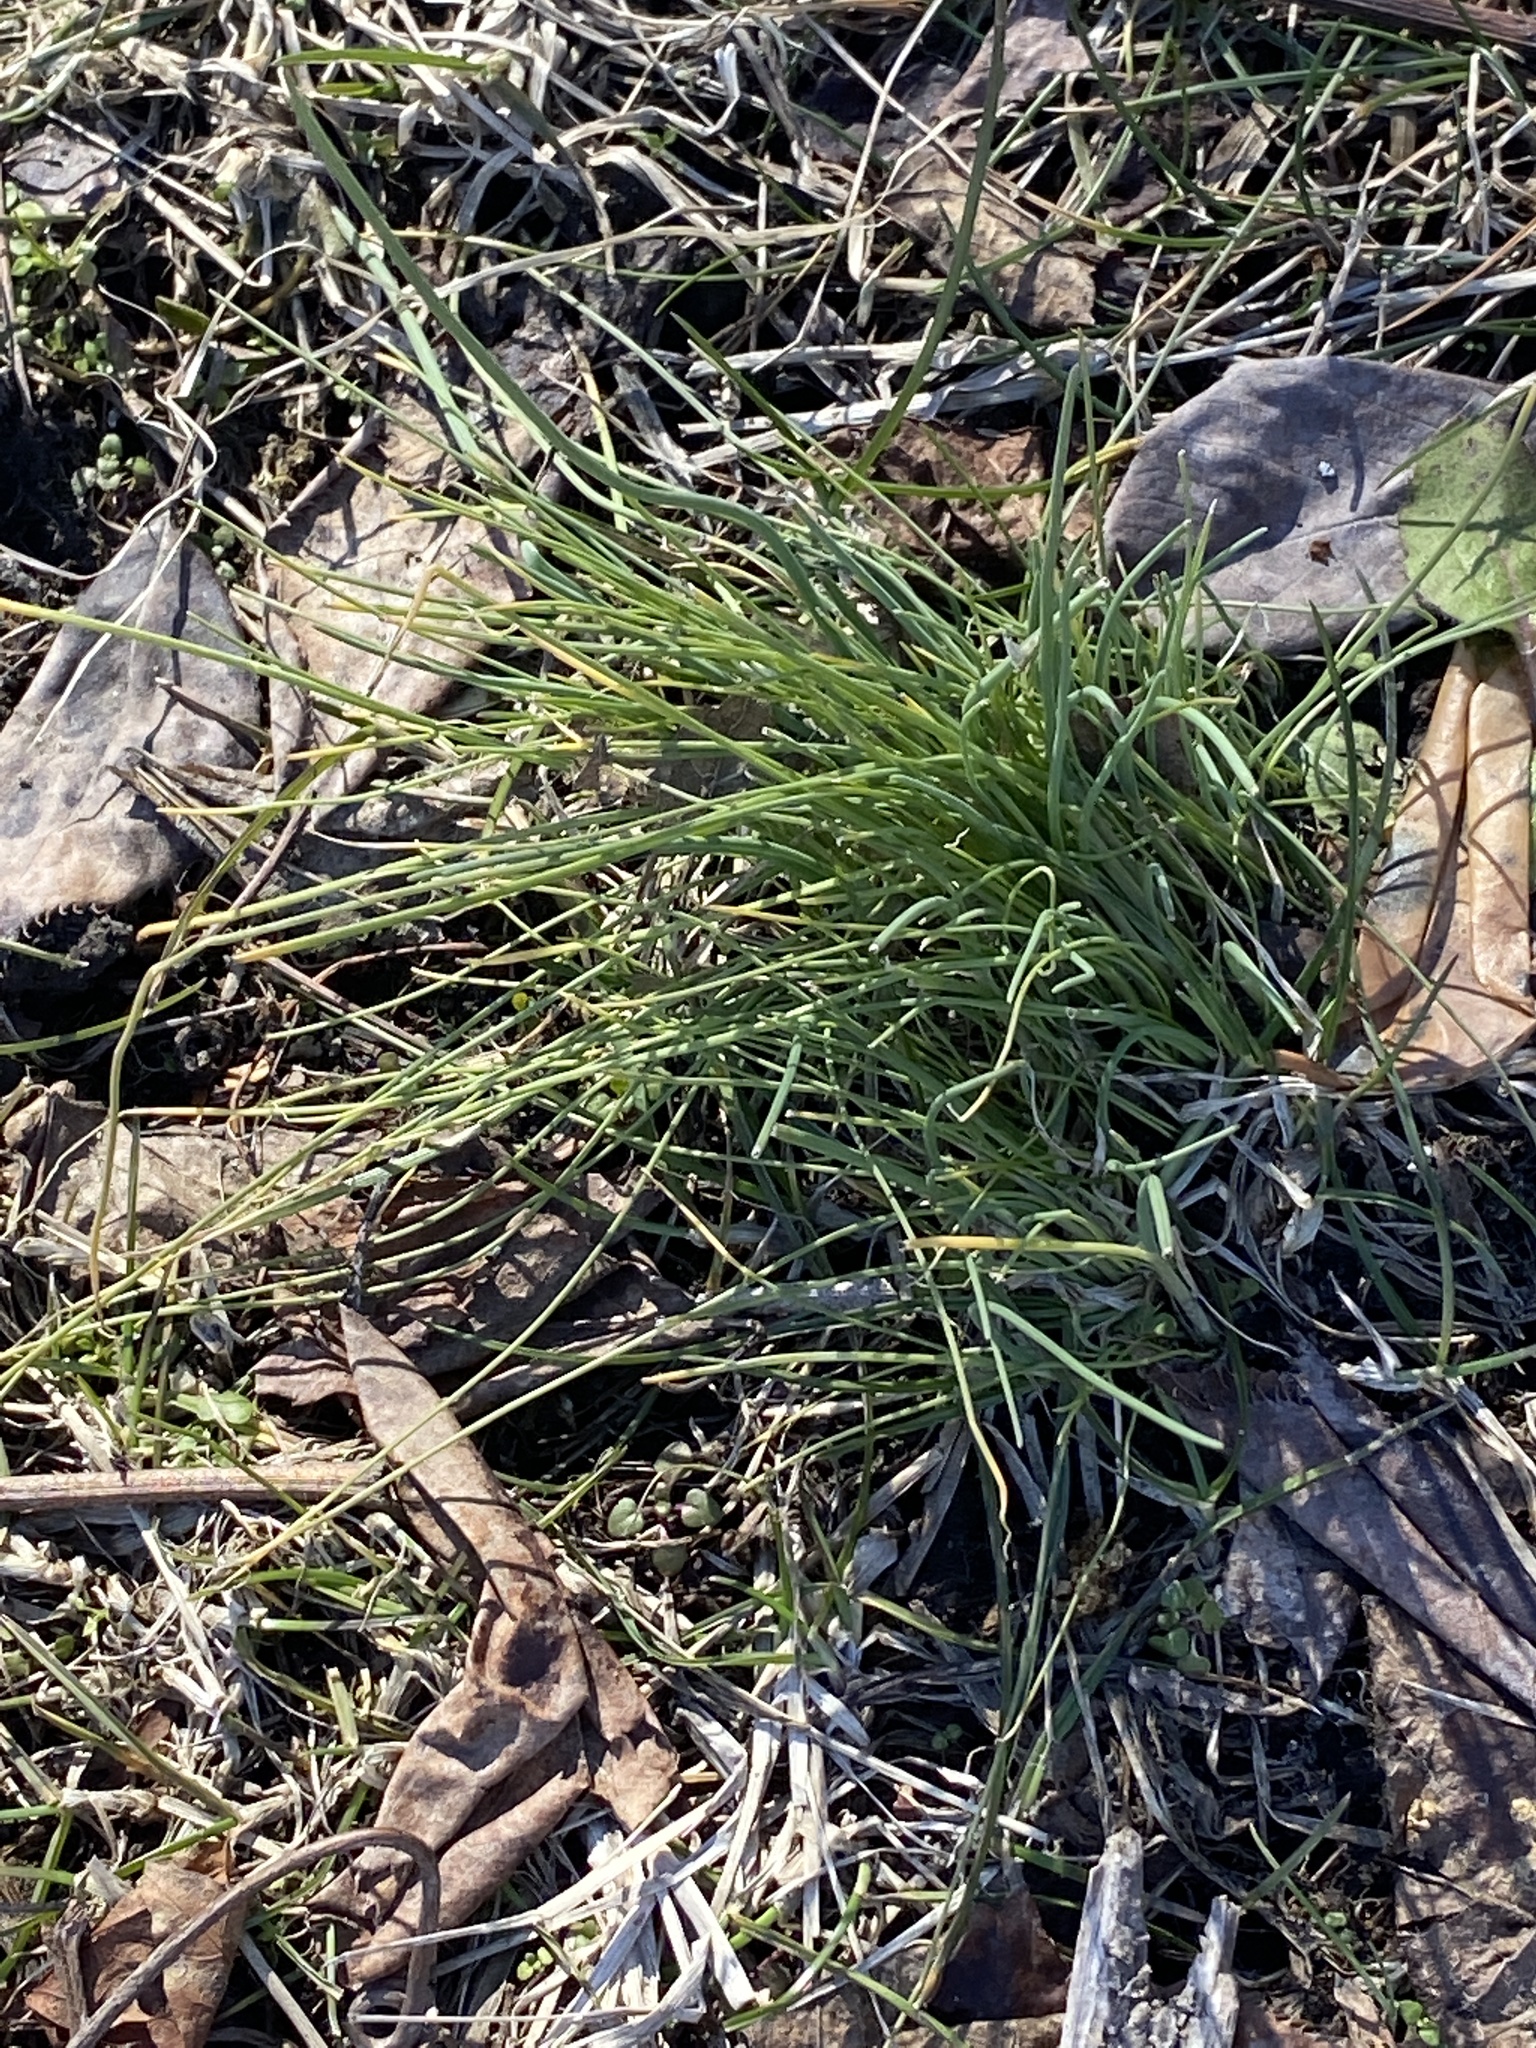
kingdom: Plantae
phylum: Tracheophyta
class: Liliopsida
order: Asparagales
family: Amaryllidaceae
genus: Allium
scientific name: Allium vineale
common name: Crow garlic
